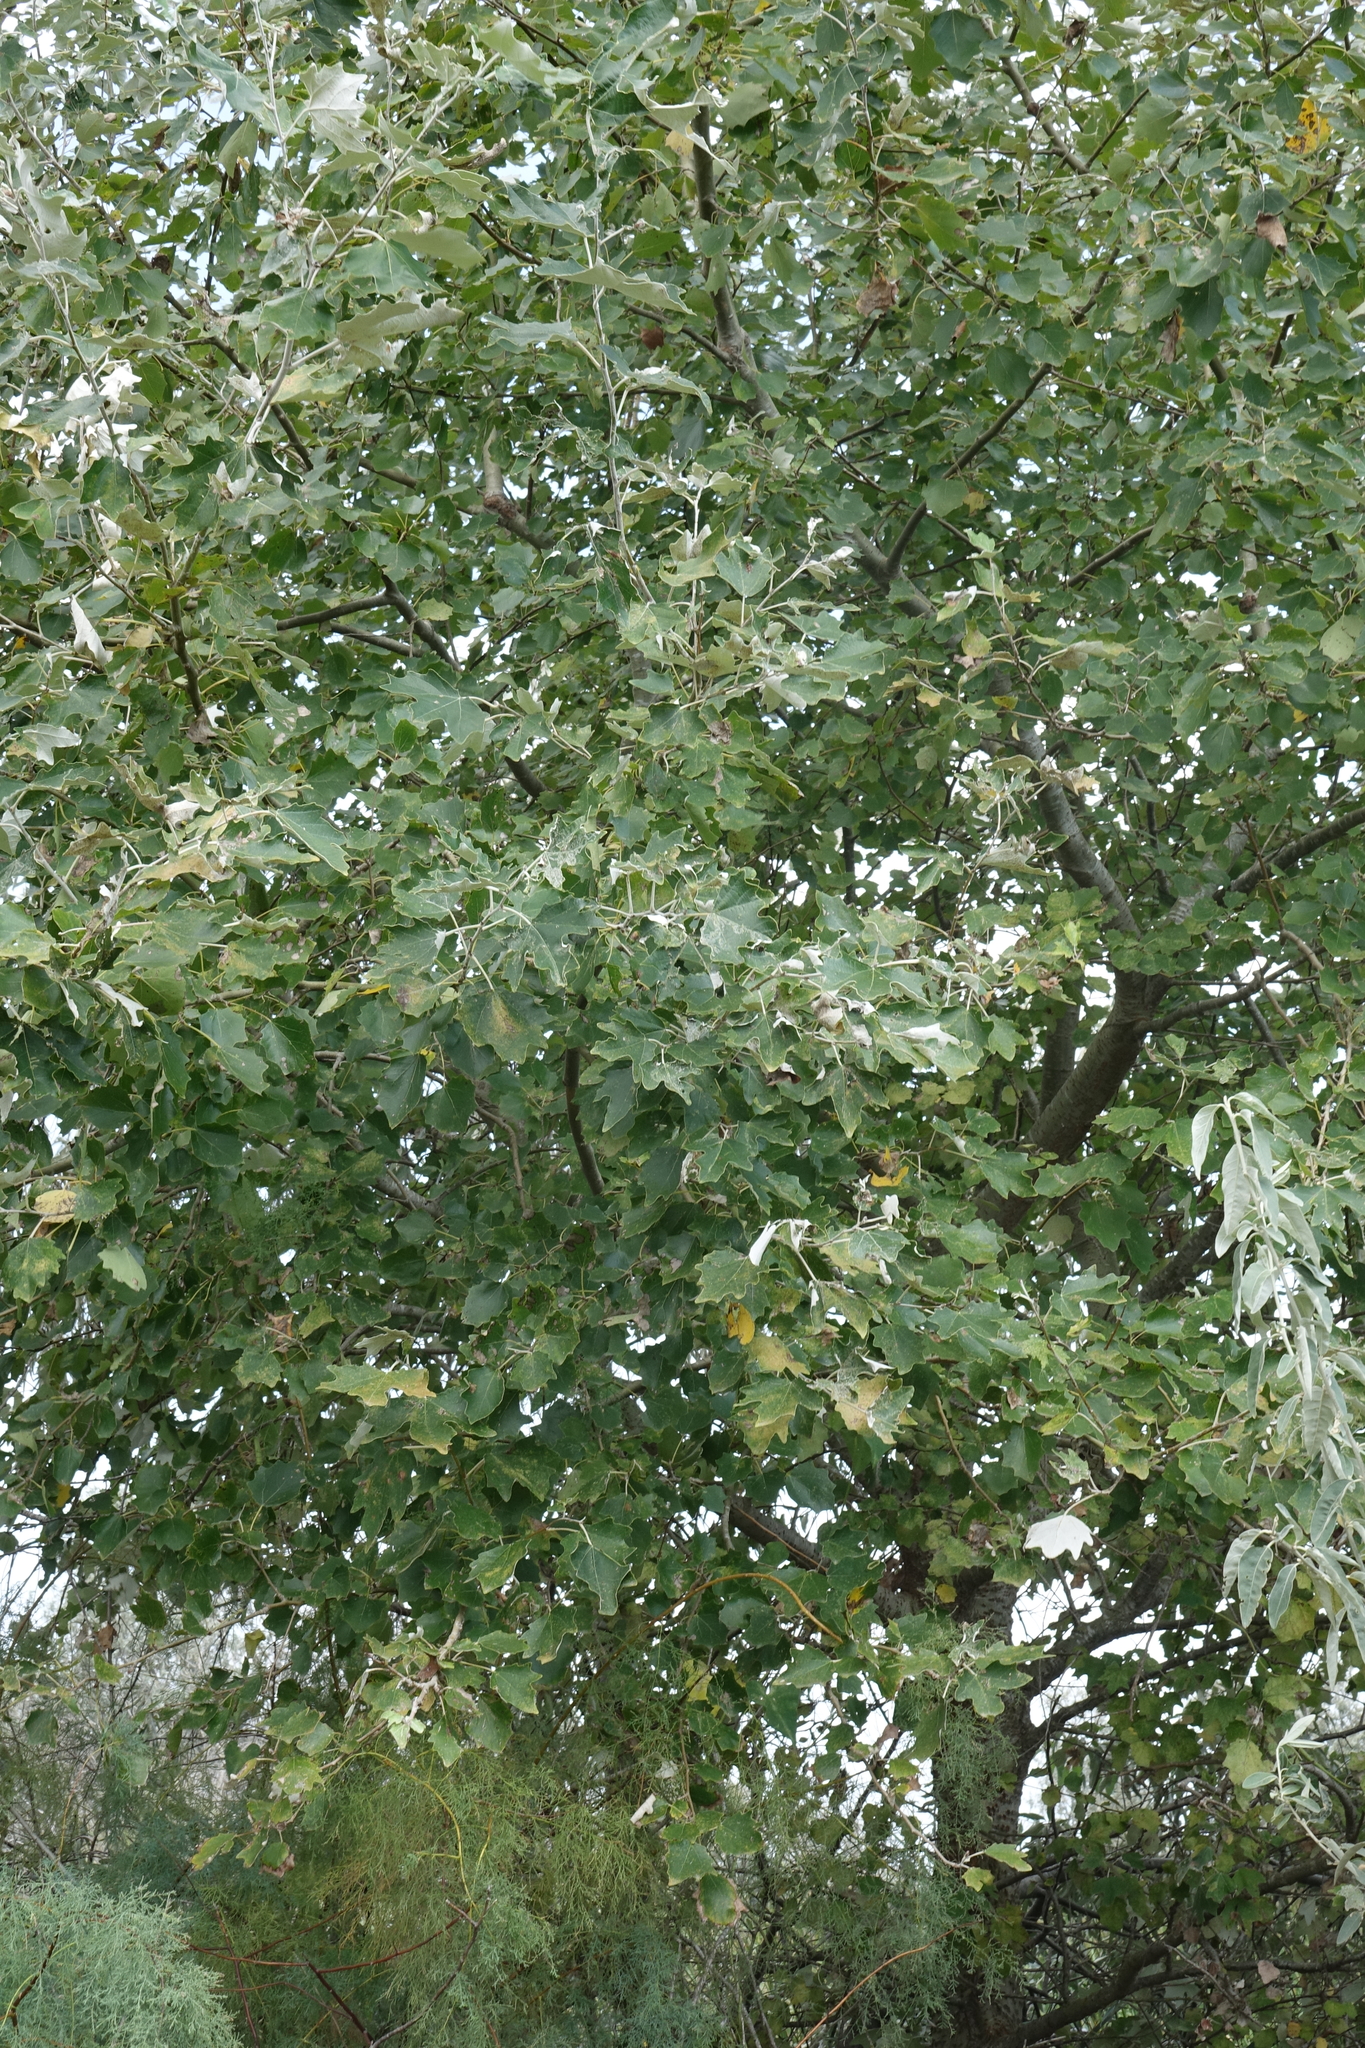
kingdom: Plantae
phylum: Tracheophyta
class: Magnoliopsida
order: Malpighiales
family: Salicaceae
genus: Populus
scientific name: Populus alba
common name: White poplar
